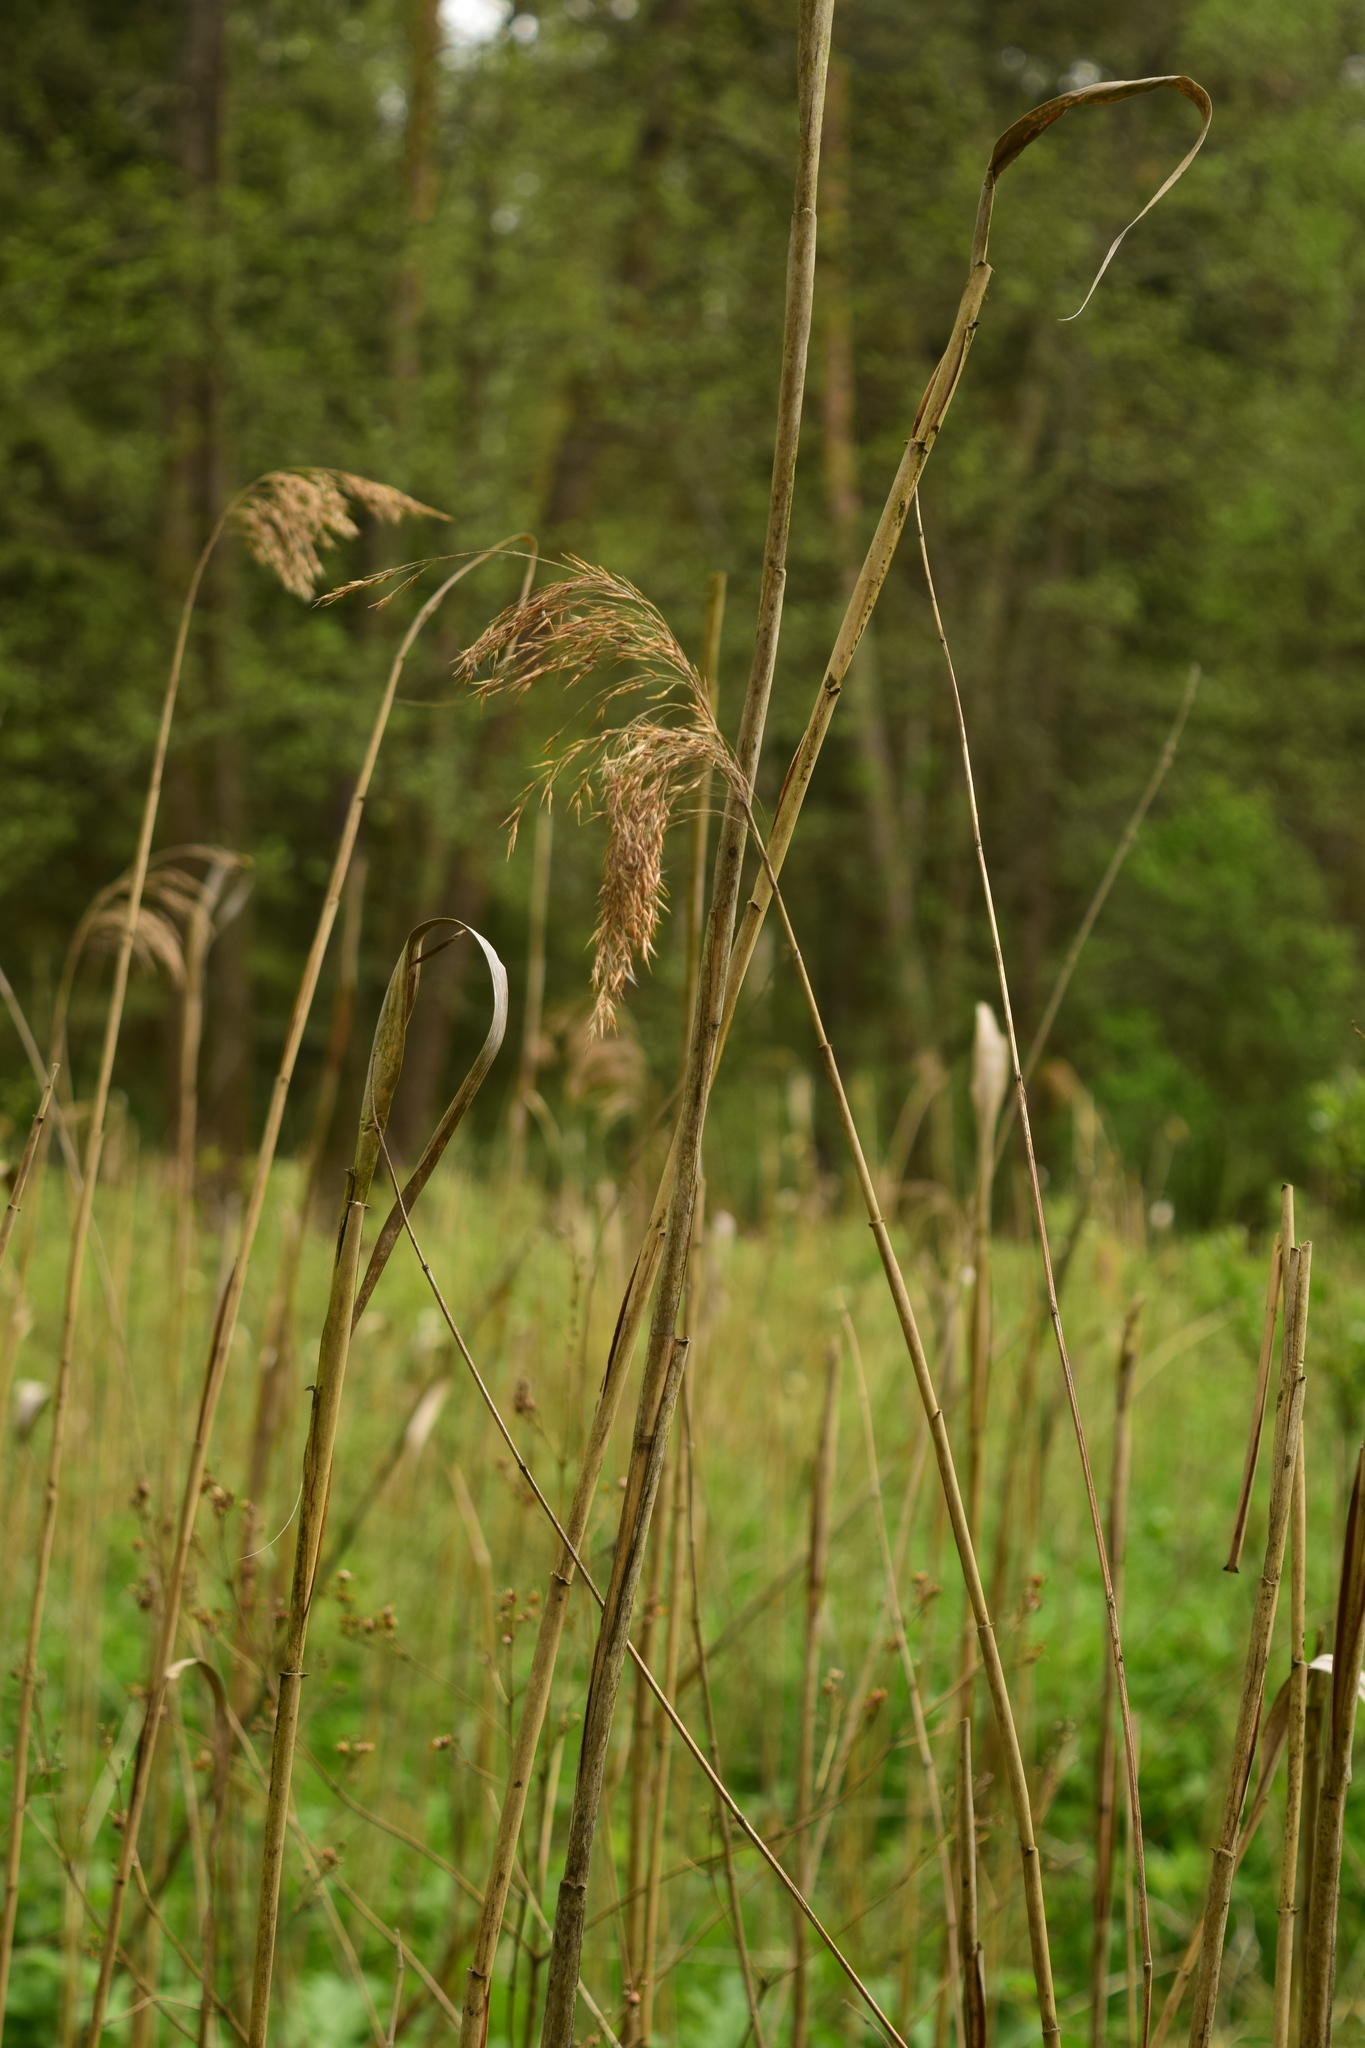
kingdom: Plantae
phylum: Tracheophyta
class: Liliopsida
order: Poales
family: Poaceae
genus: Phragmites
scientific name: Phragmites australis
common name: Common reed
